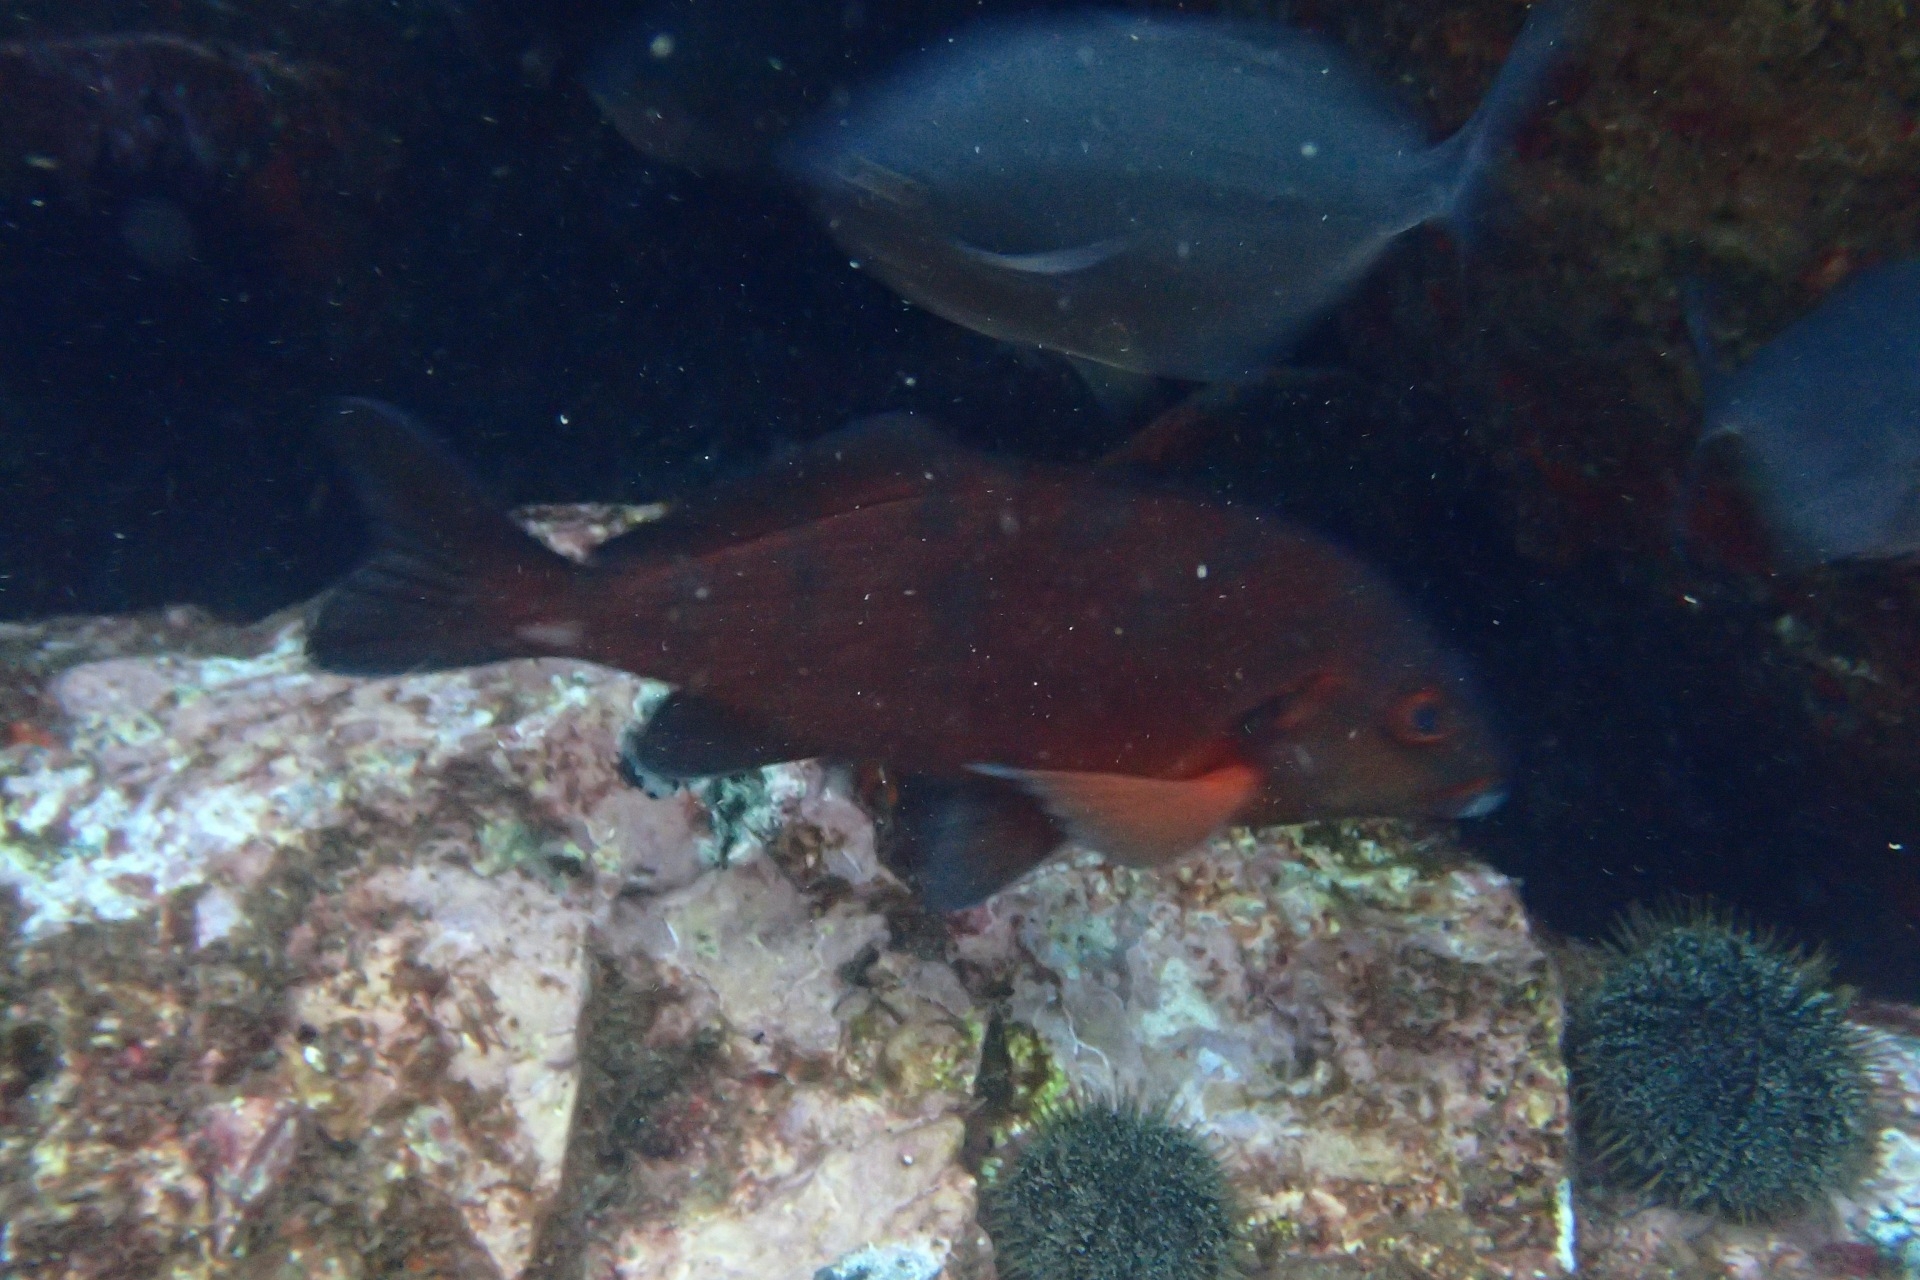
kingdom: Animalia
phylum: Chordata
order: Perciformes
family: Cheilodactylidae
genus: Cheilodactylus
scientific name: Cheilodactylus spectabilis
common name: Red moki
